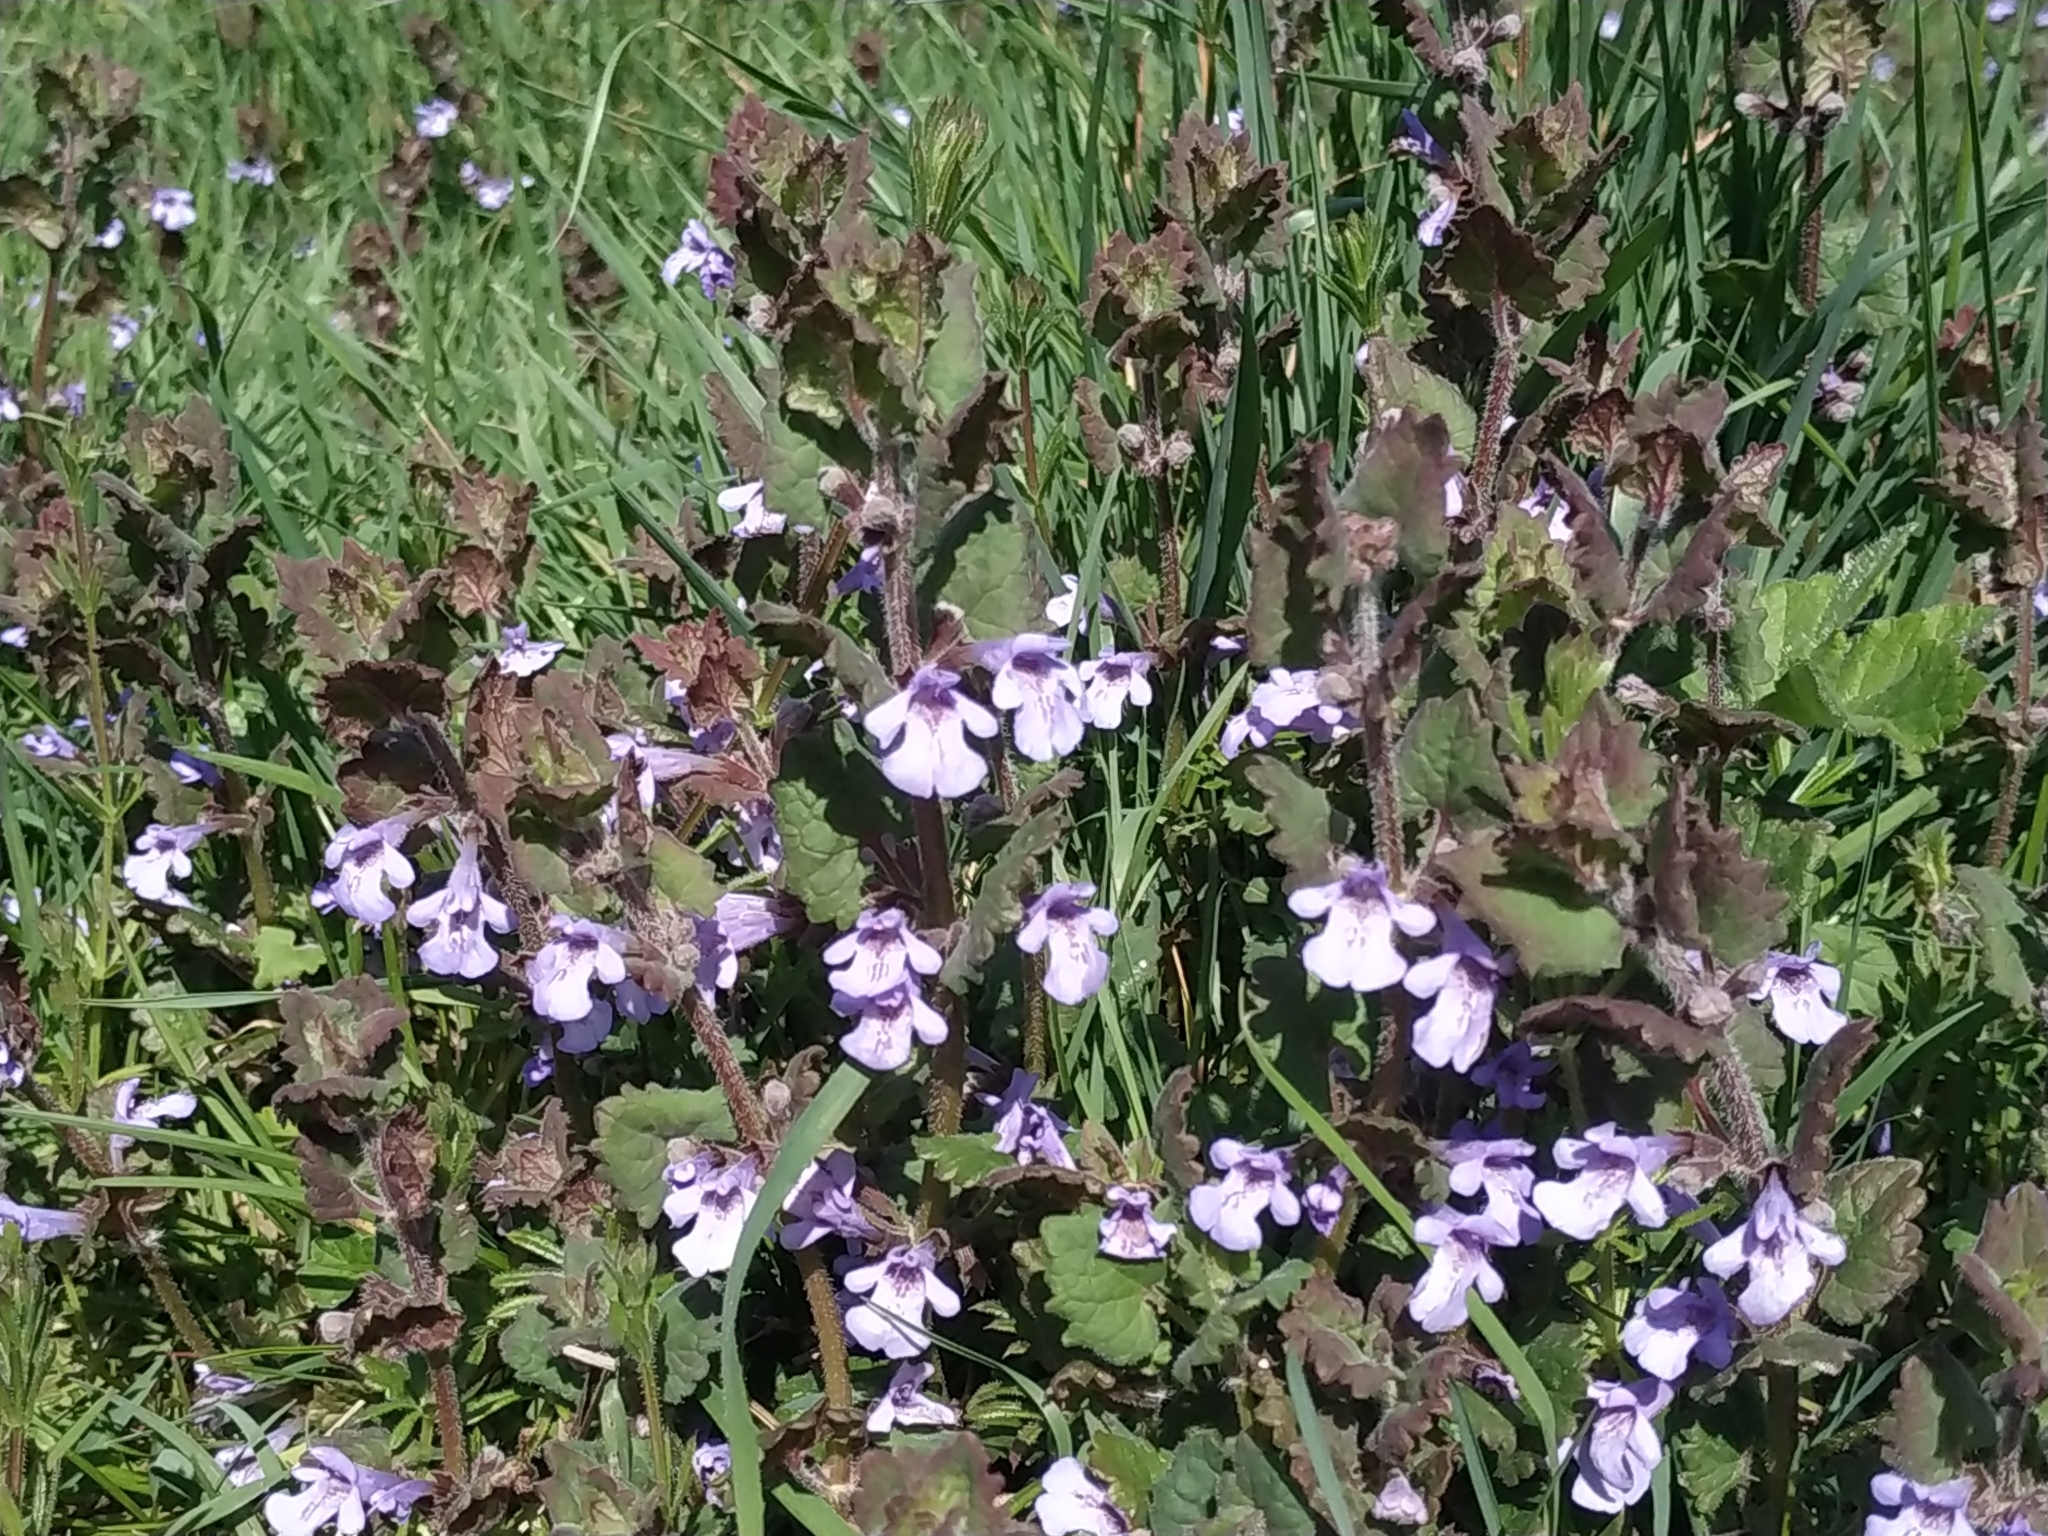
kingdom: Plantae
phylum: Tracheophyta
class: Magnoliopsida
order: Lamiales
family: Lamiaceae
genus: Glechoma
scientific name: Glechoma hederacea
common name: Ground ivy
